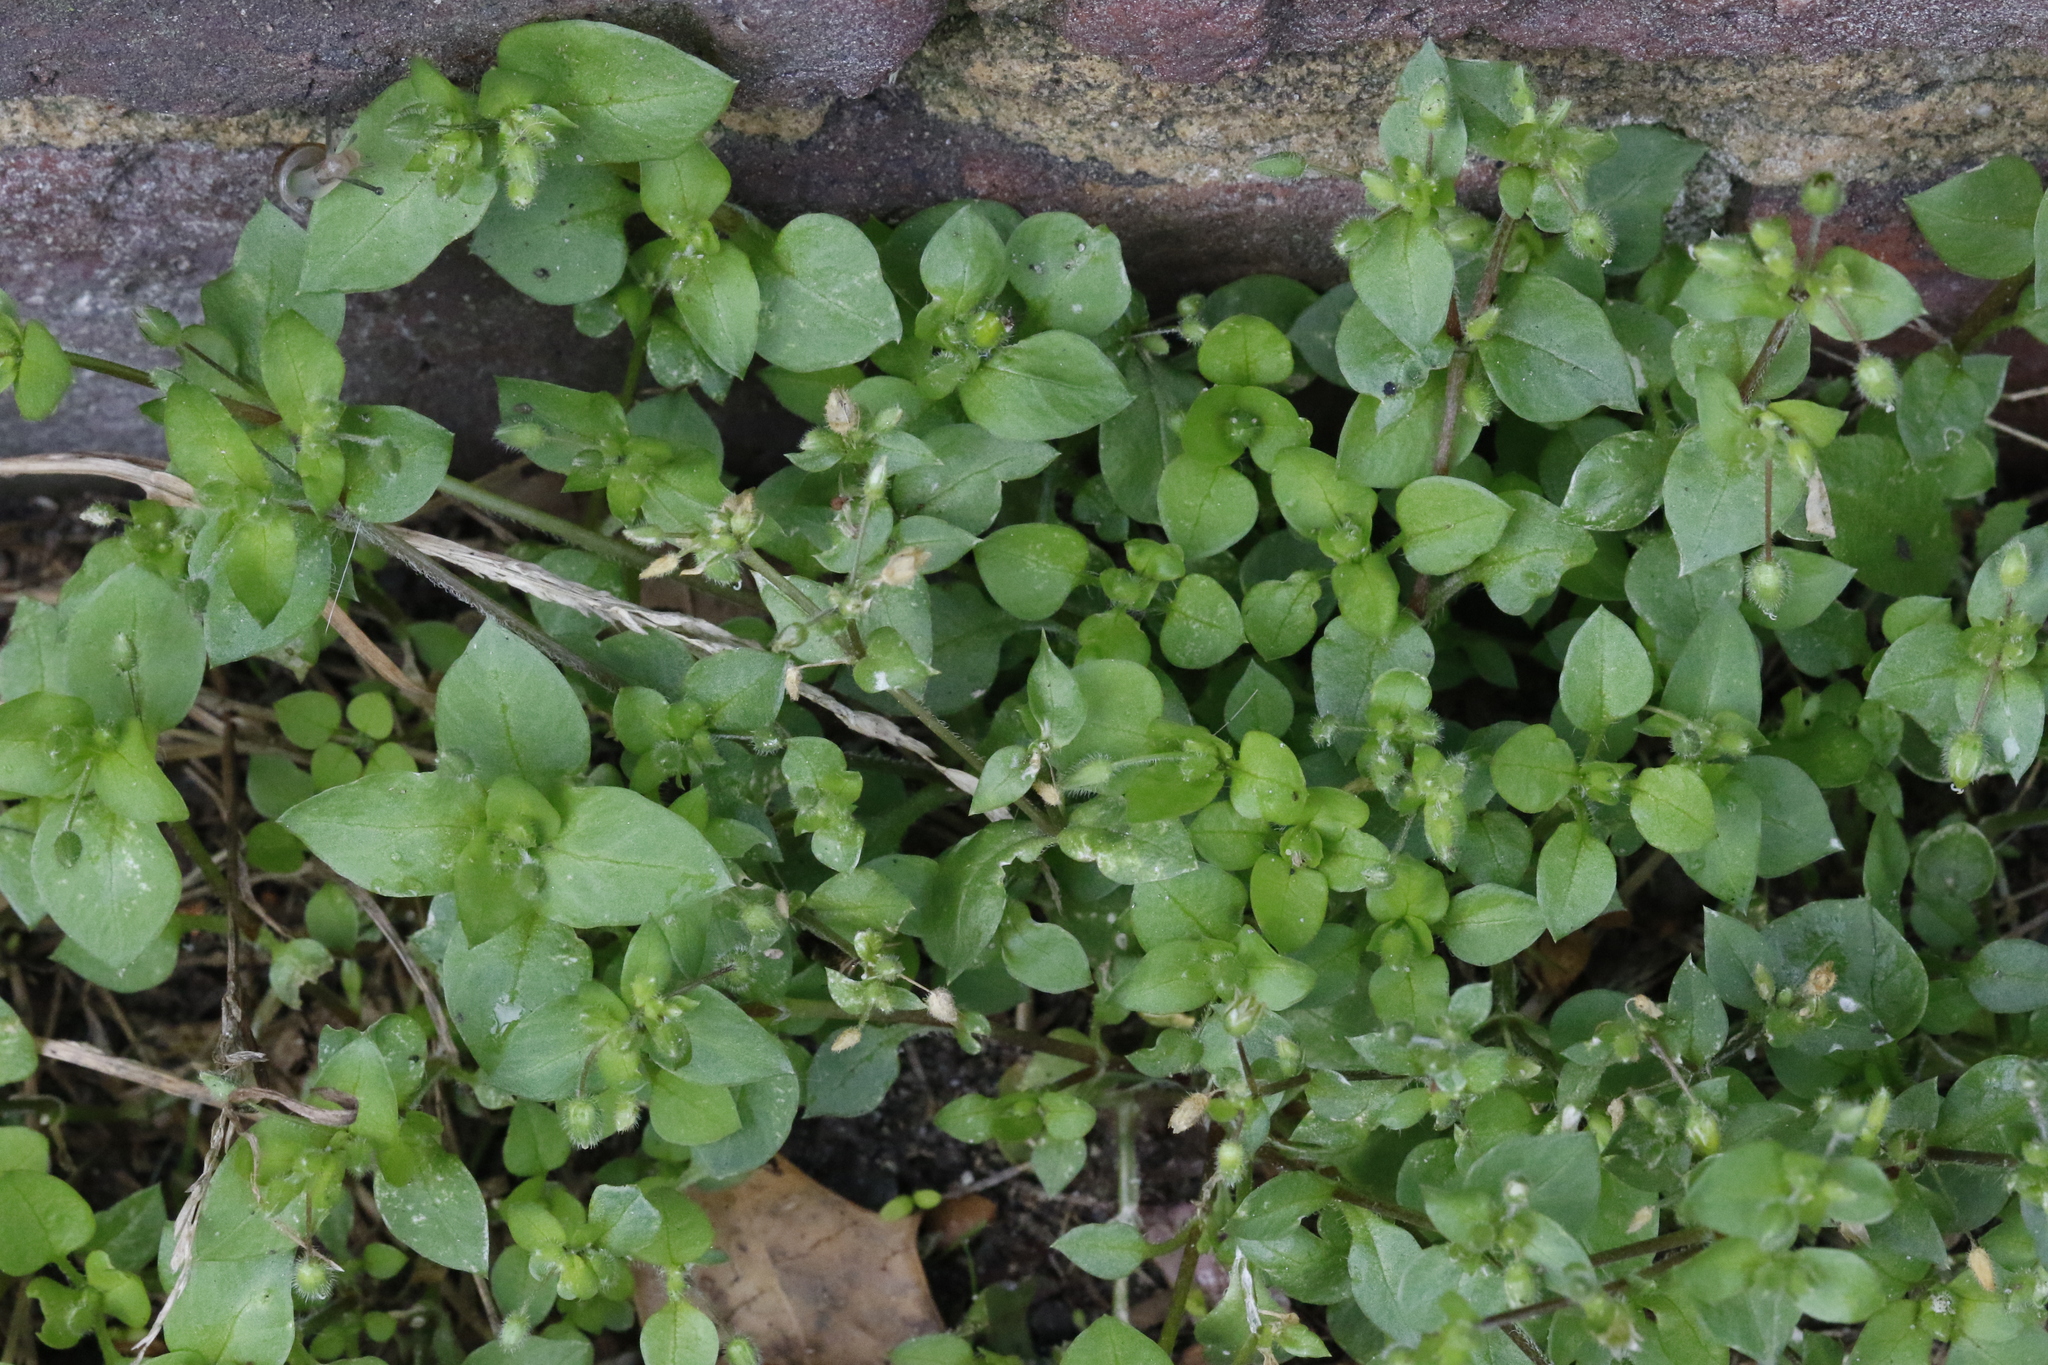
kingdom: Plantae
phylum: Tracheophyta
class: Magnoliopsida
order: Caryophyllales
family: Caryophyllaceae
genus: Stellaria
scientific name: Stellaria media
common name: Common chickweed
